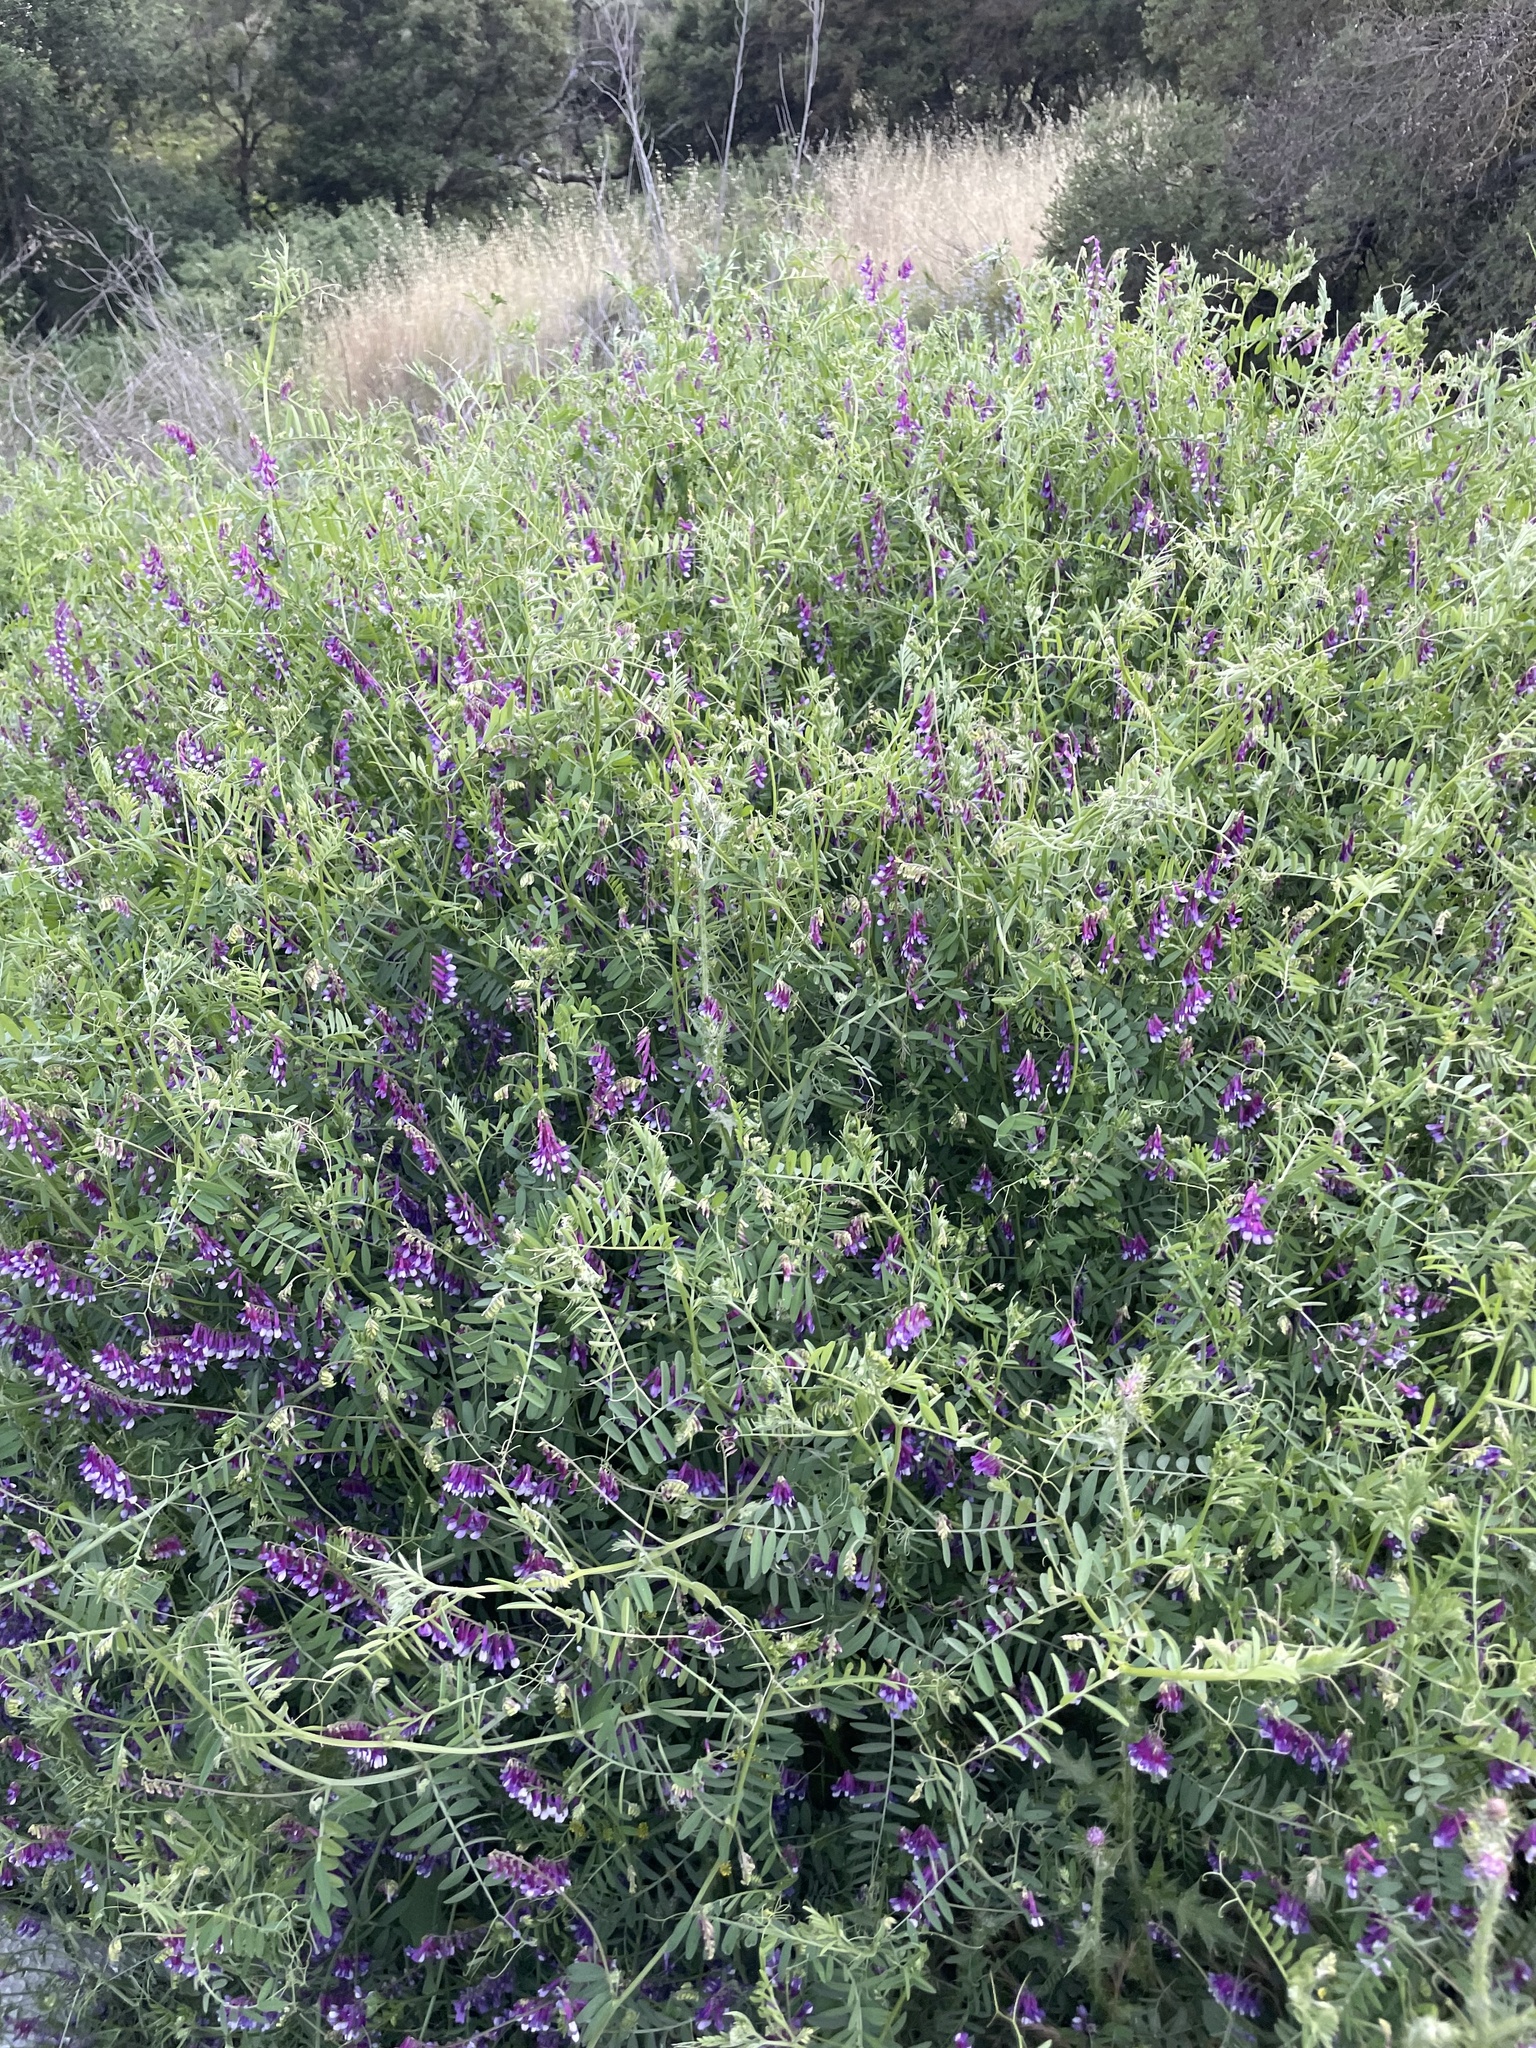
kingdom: Plantae
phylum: Tracheophyta
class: Magnoliopsida
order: Fabales
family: Fabaceae
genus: Vicia
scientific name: Vicia villosa
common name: Fodder vetch
